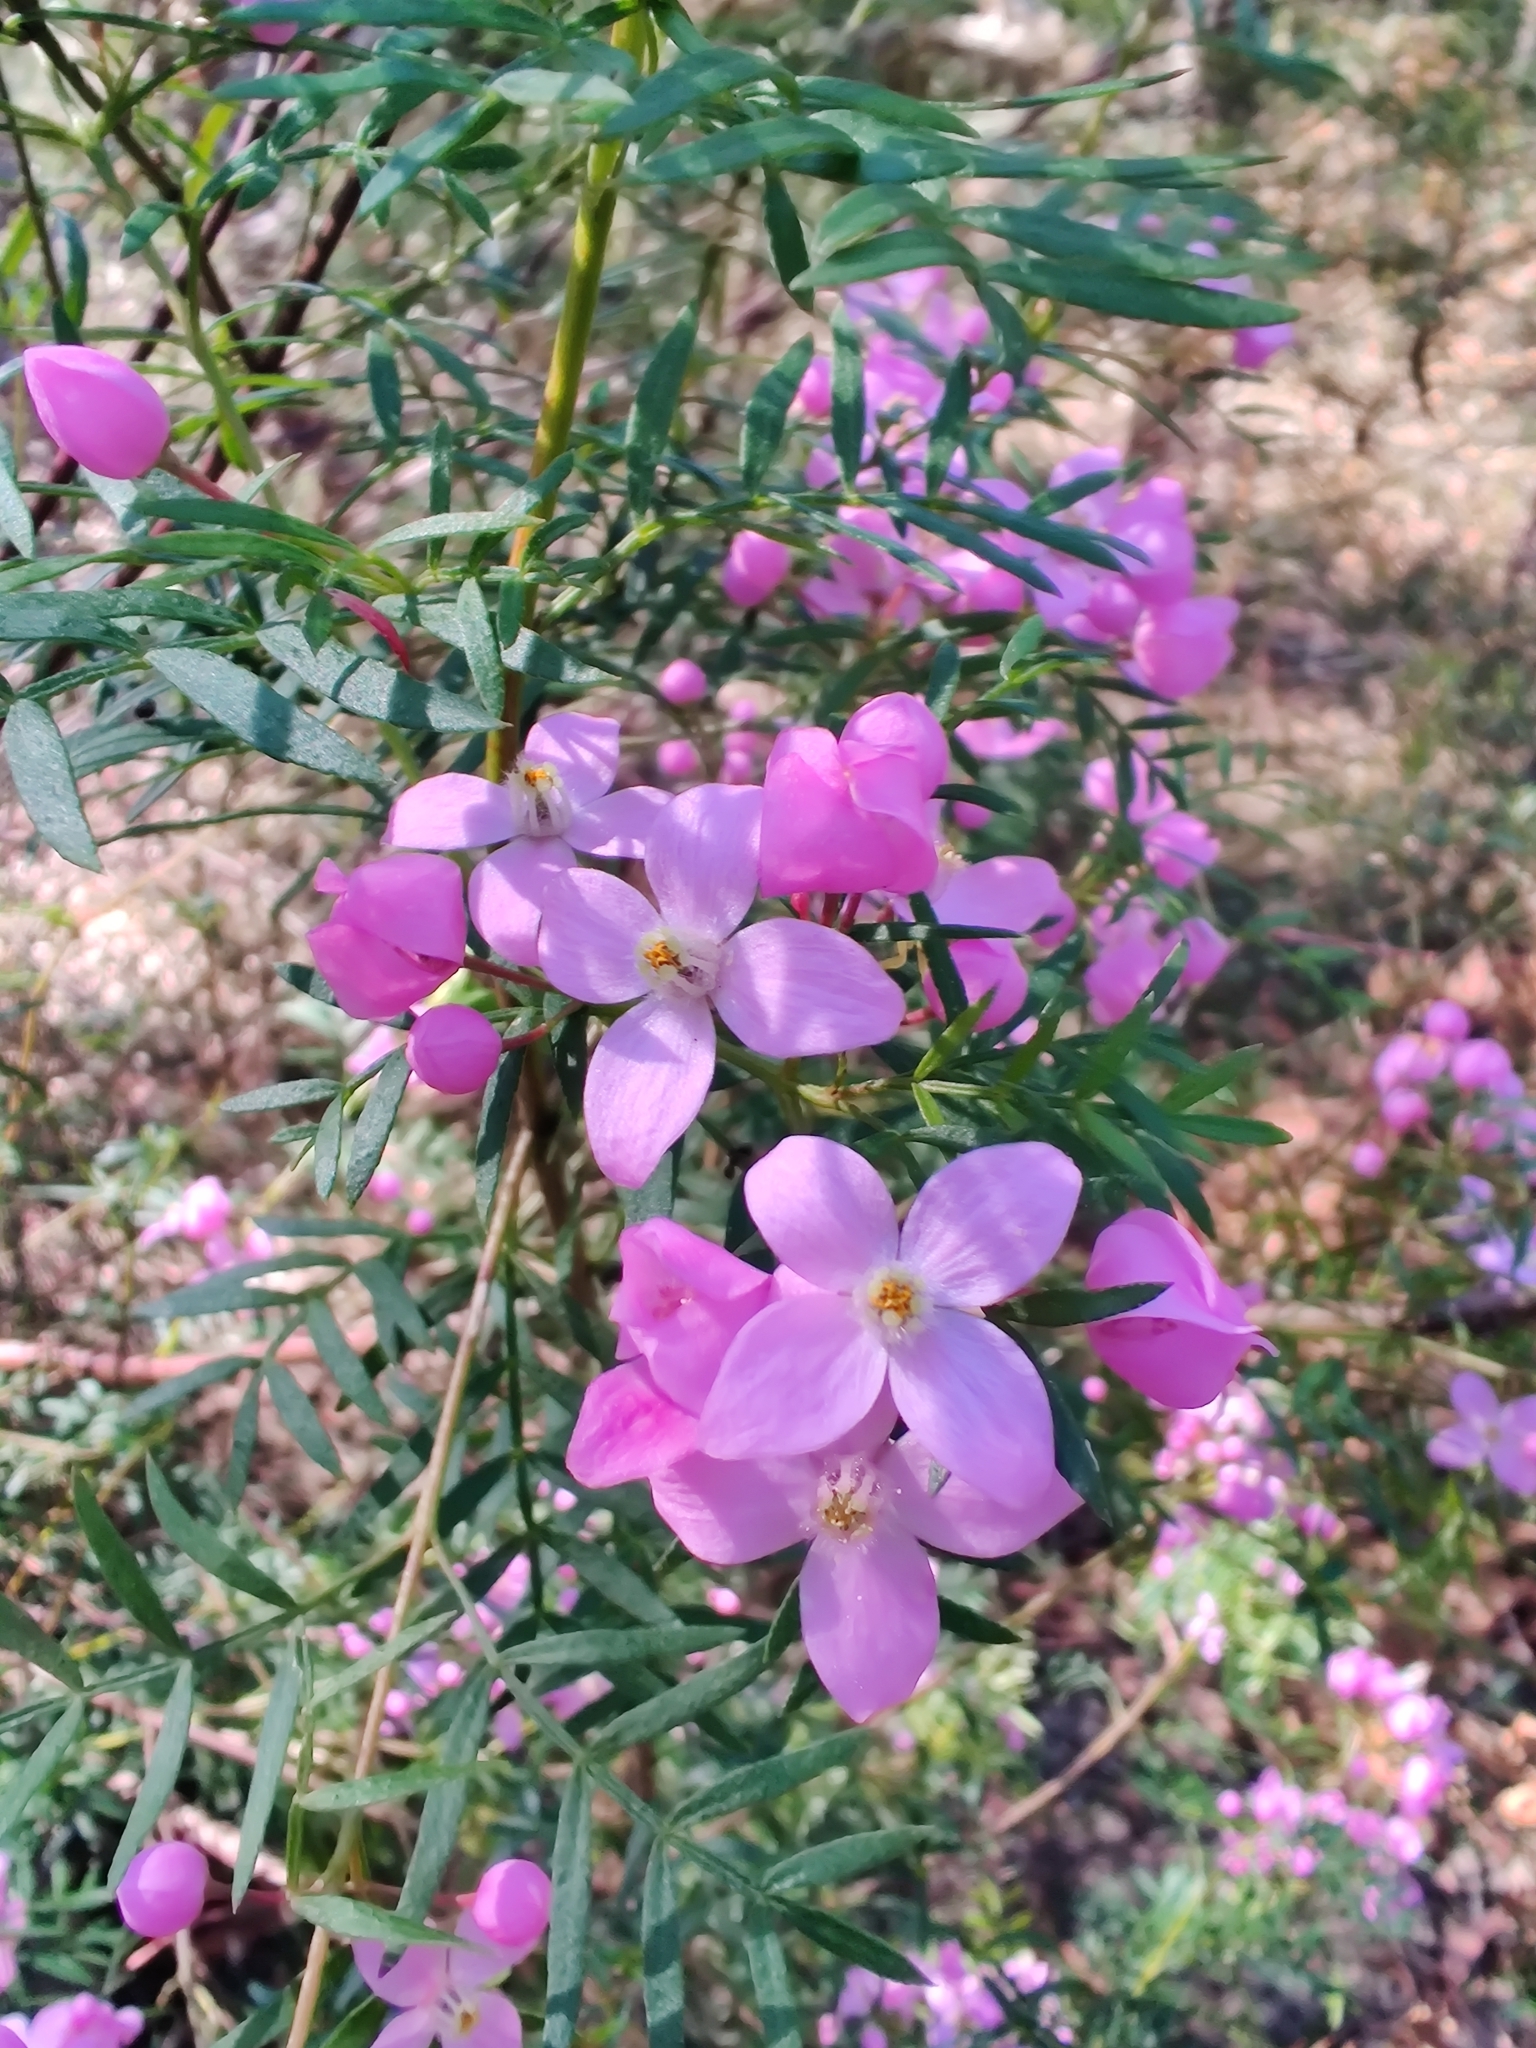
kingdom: Plantae
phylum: Tracheophyta
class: Magnoliopsida
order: Sapindales
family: Rutaceae
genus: Boronia
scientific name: Boronia pinnata
